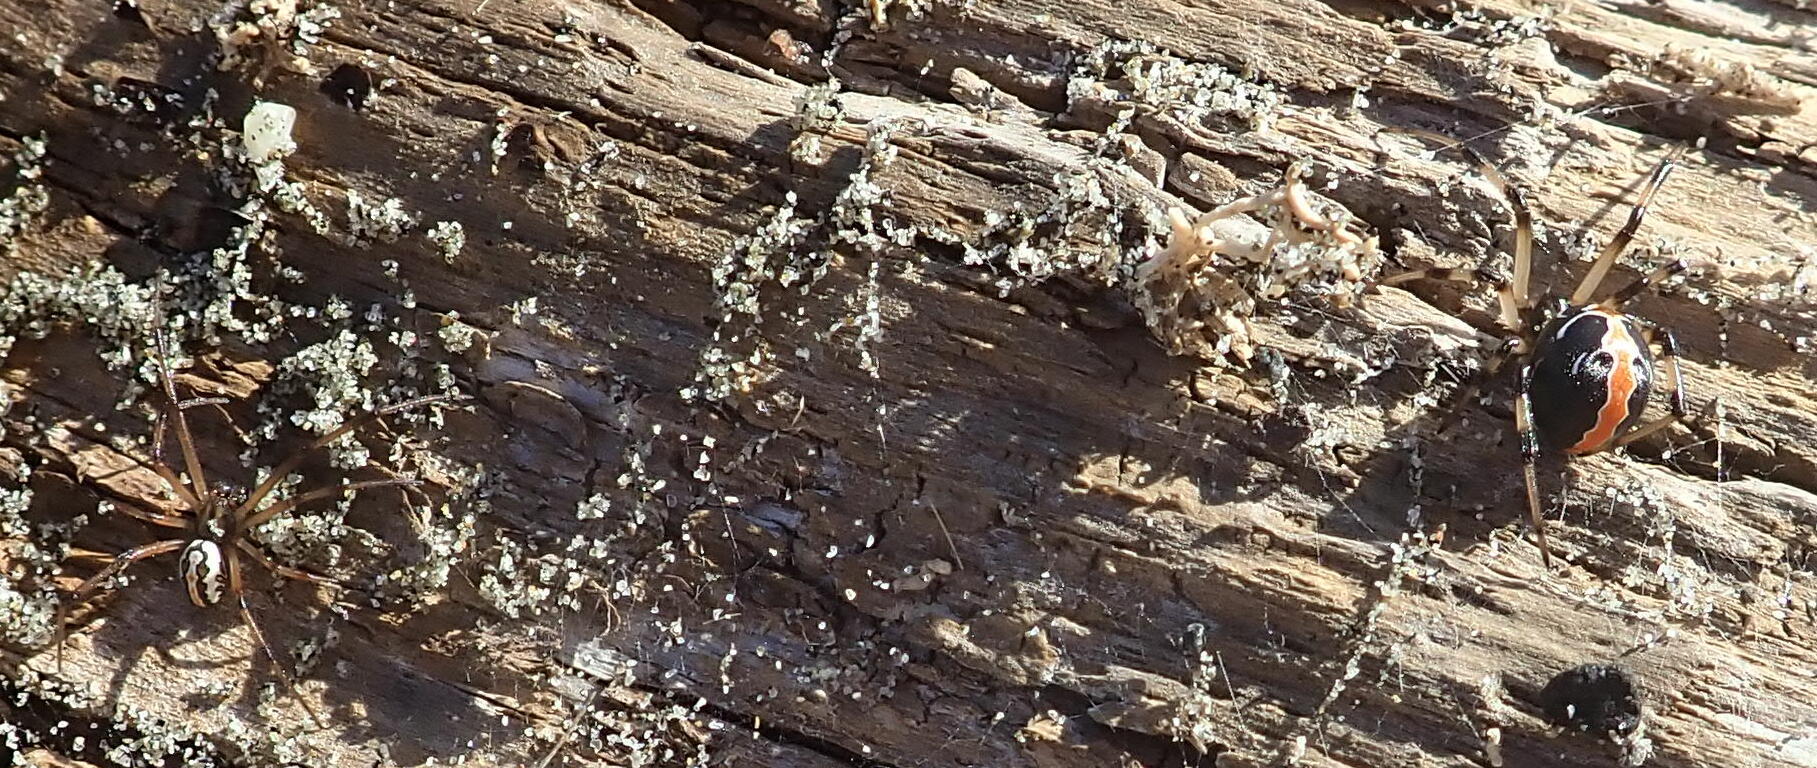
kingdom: Animalia
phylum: Arthropoda
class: Arachnida
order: Araneae
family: Theridiidae
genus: Latrodectus
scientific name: Latrodectus katipo
